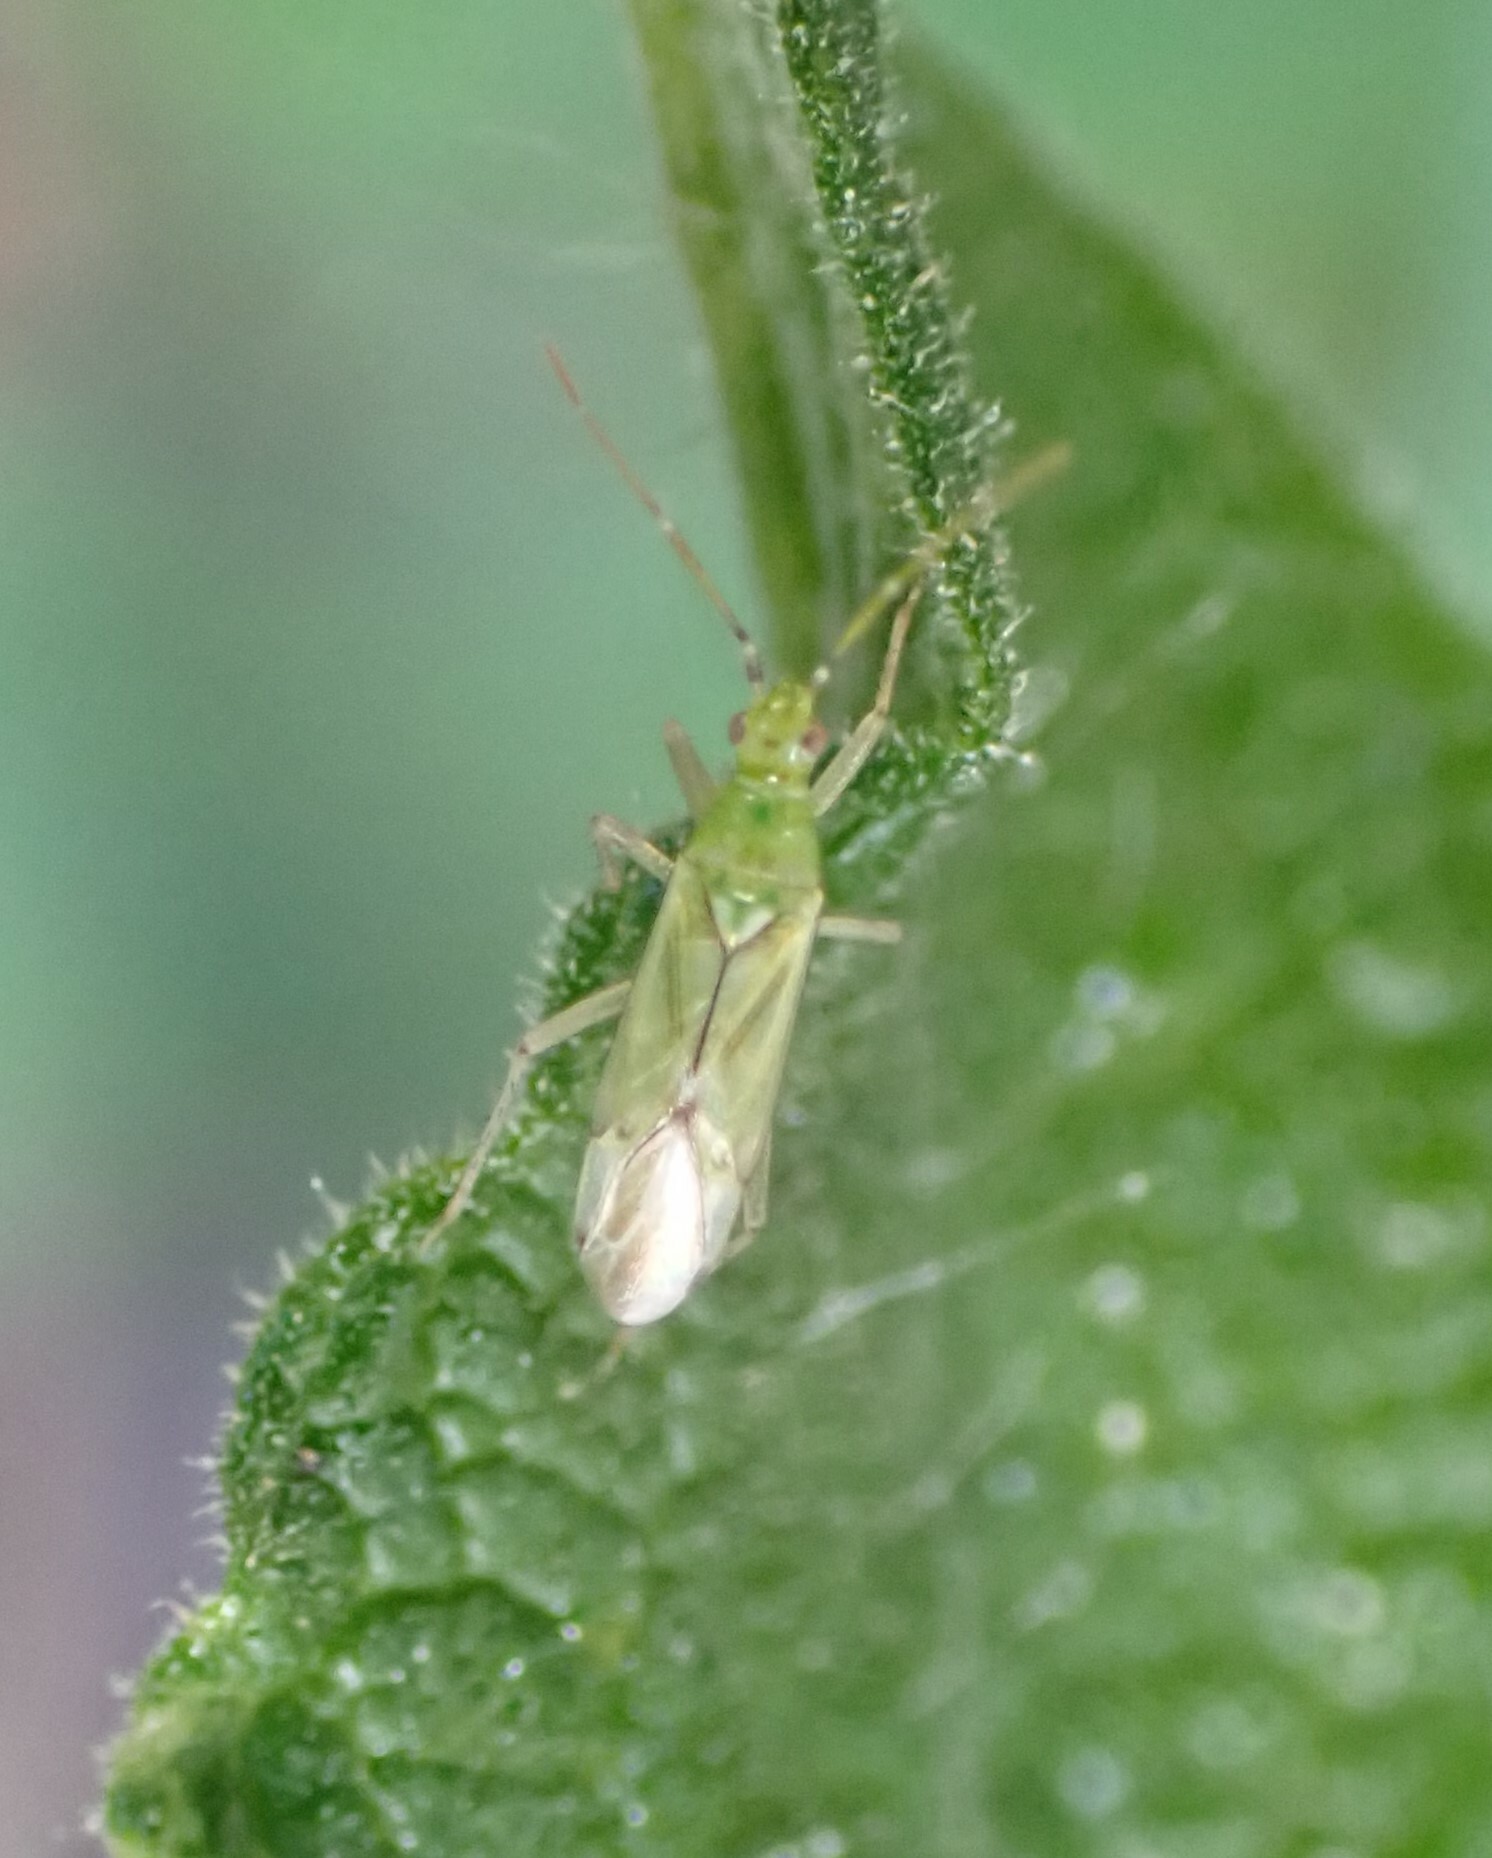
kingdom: Animalia
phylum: Arthropoda
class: Insecta
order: Hemiptera
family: Miridae
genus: Cyrtopeltis
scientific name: Cyrtopeltis canariensis
